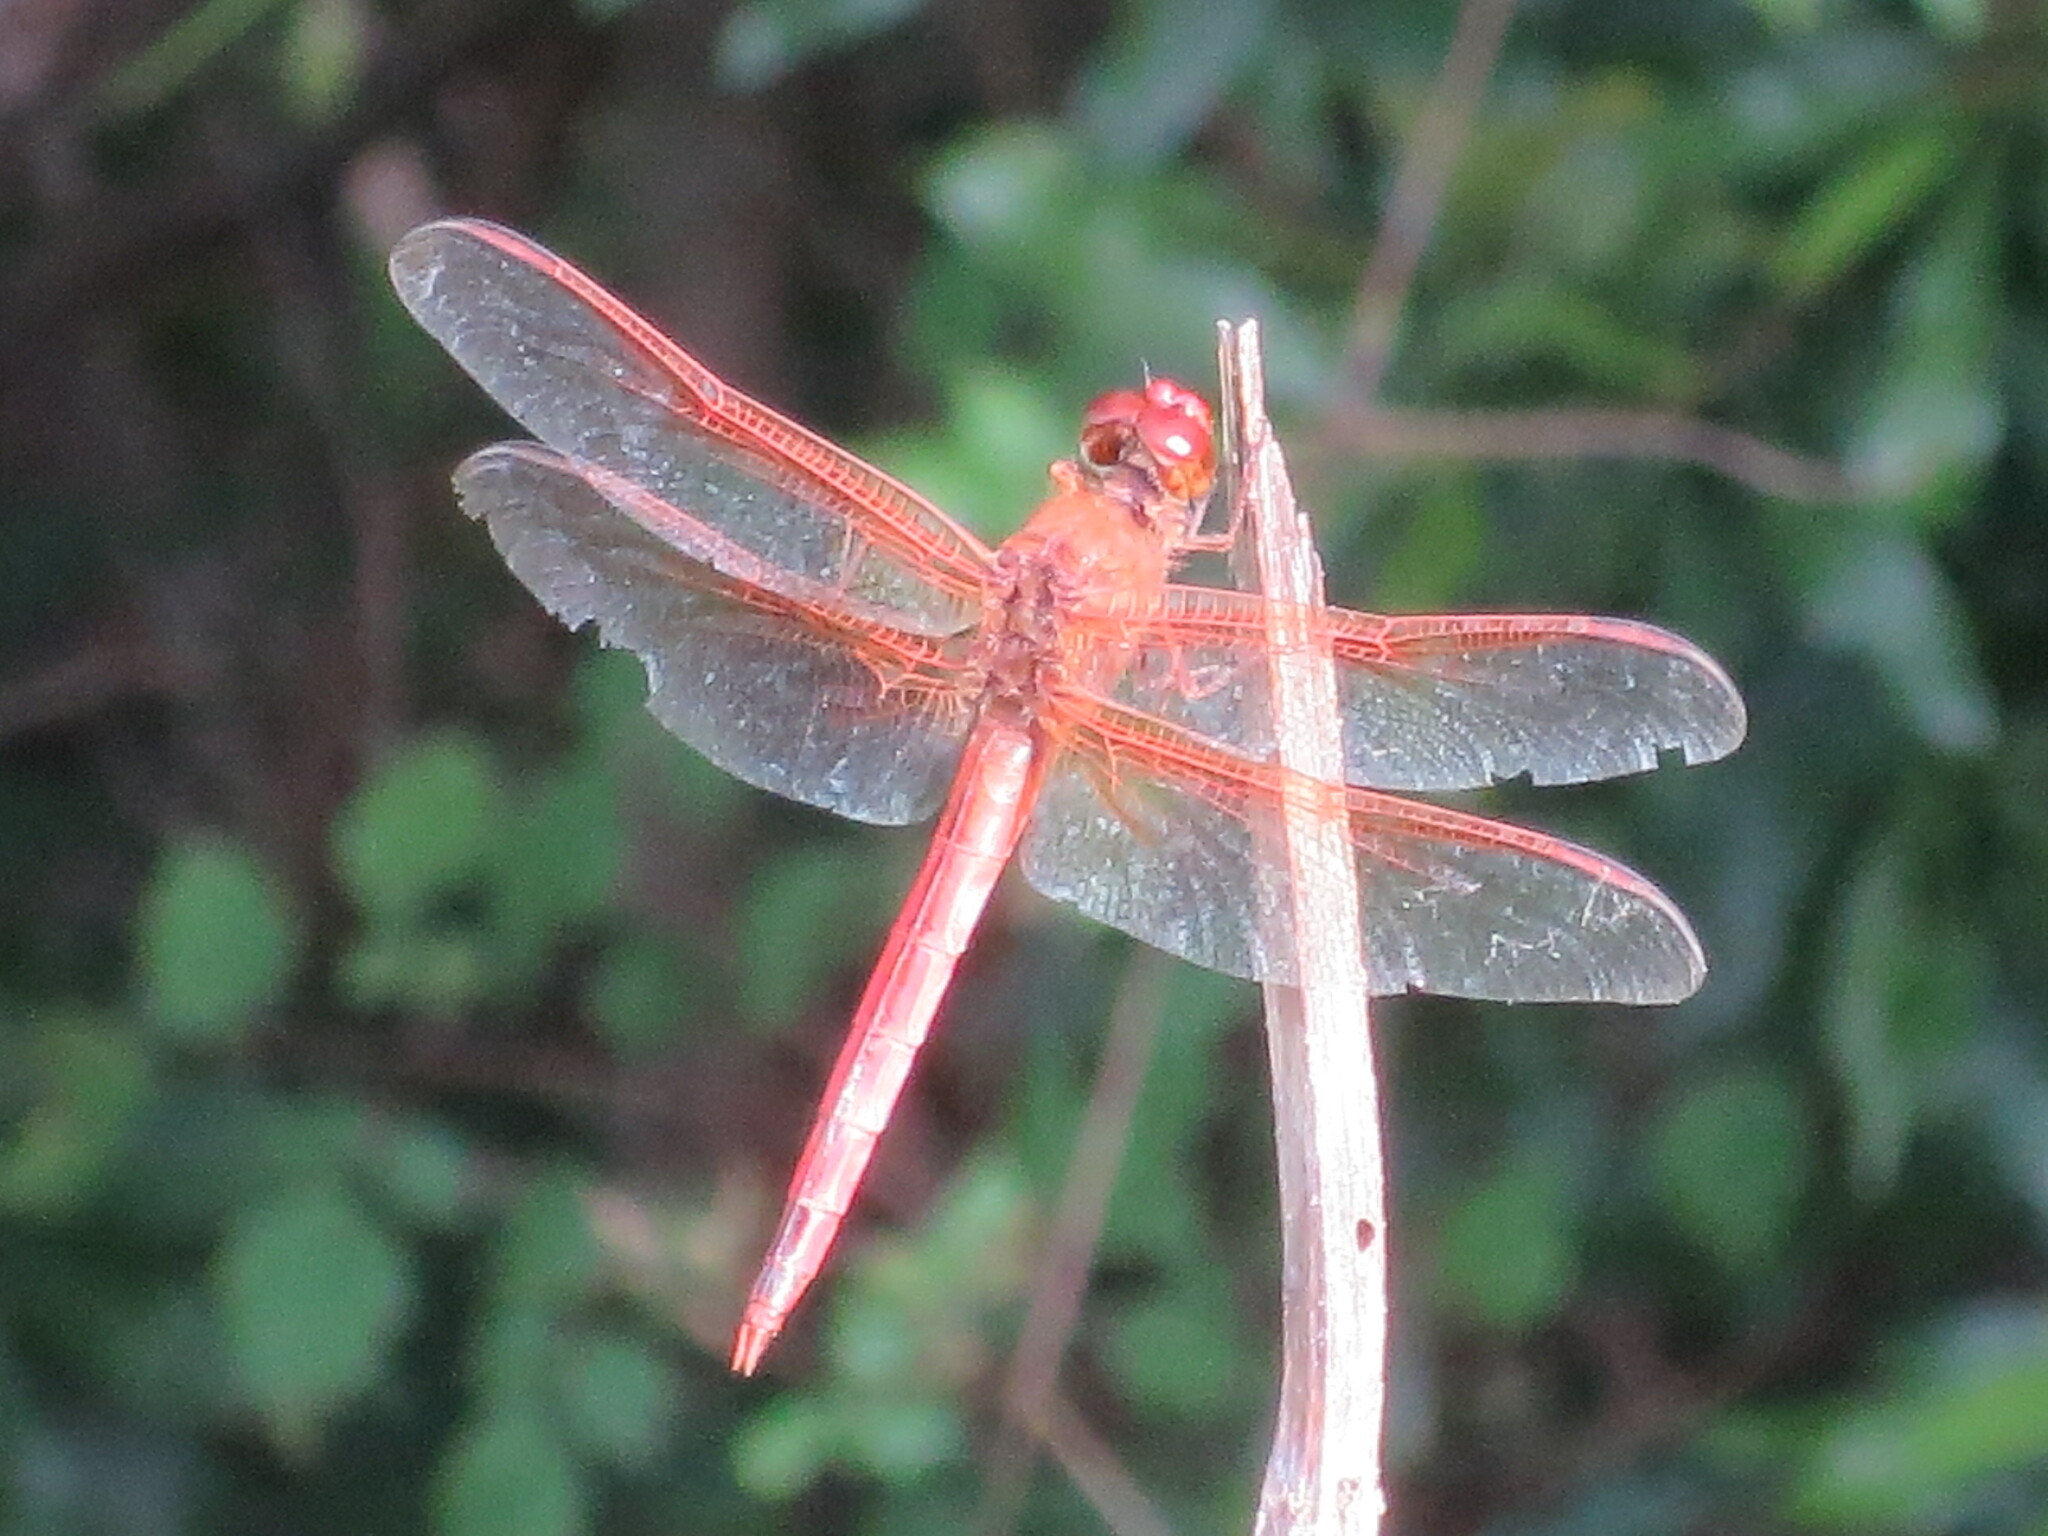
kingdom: Animalia
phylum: Arthropoda
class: Insecta
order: Odonata
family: Libellulidae
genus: Libellula
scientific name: Libellula needhami
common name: Needham's skimmer
